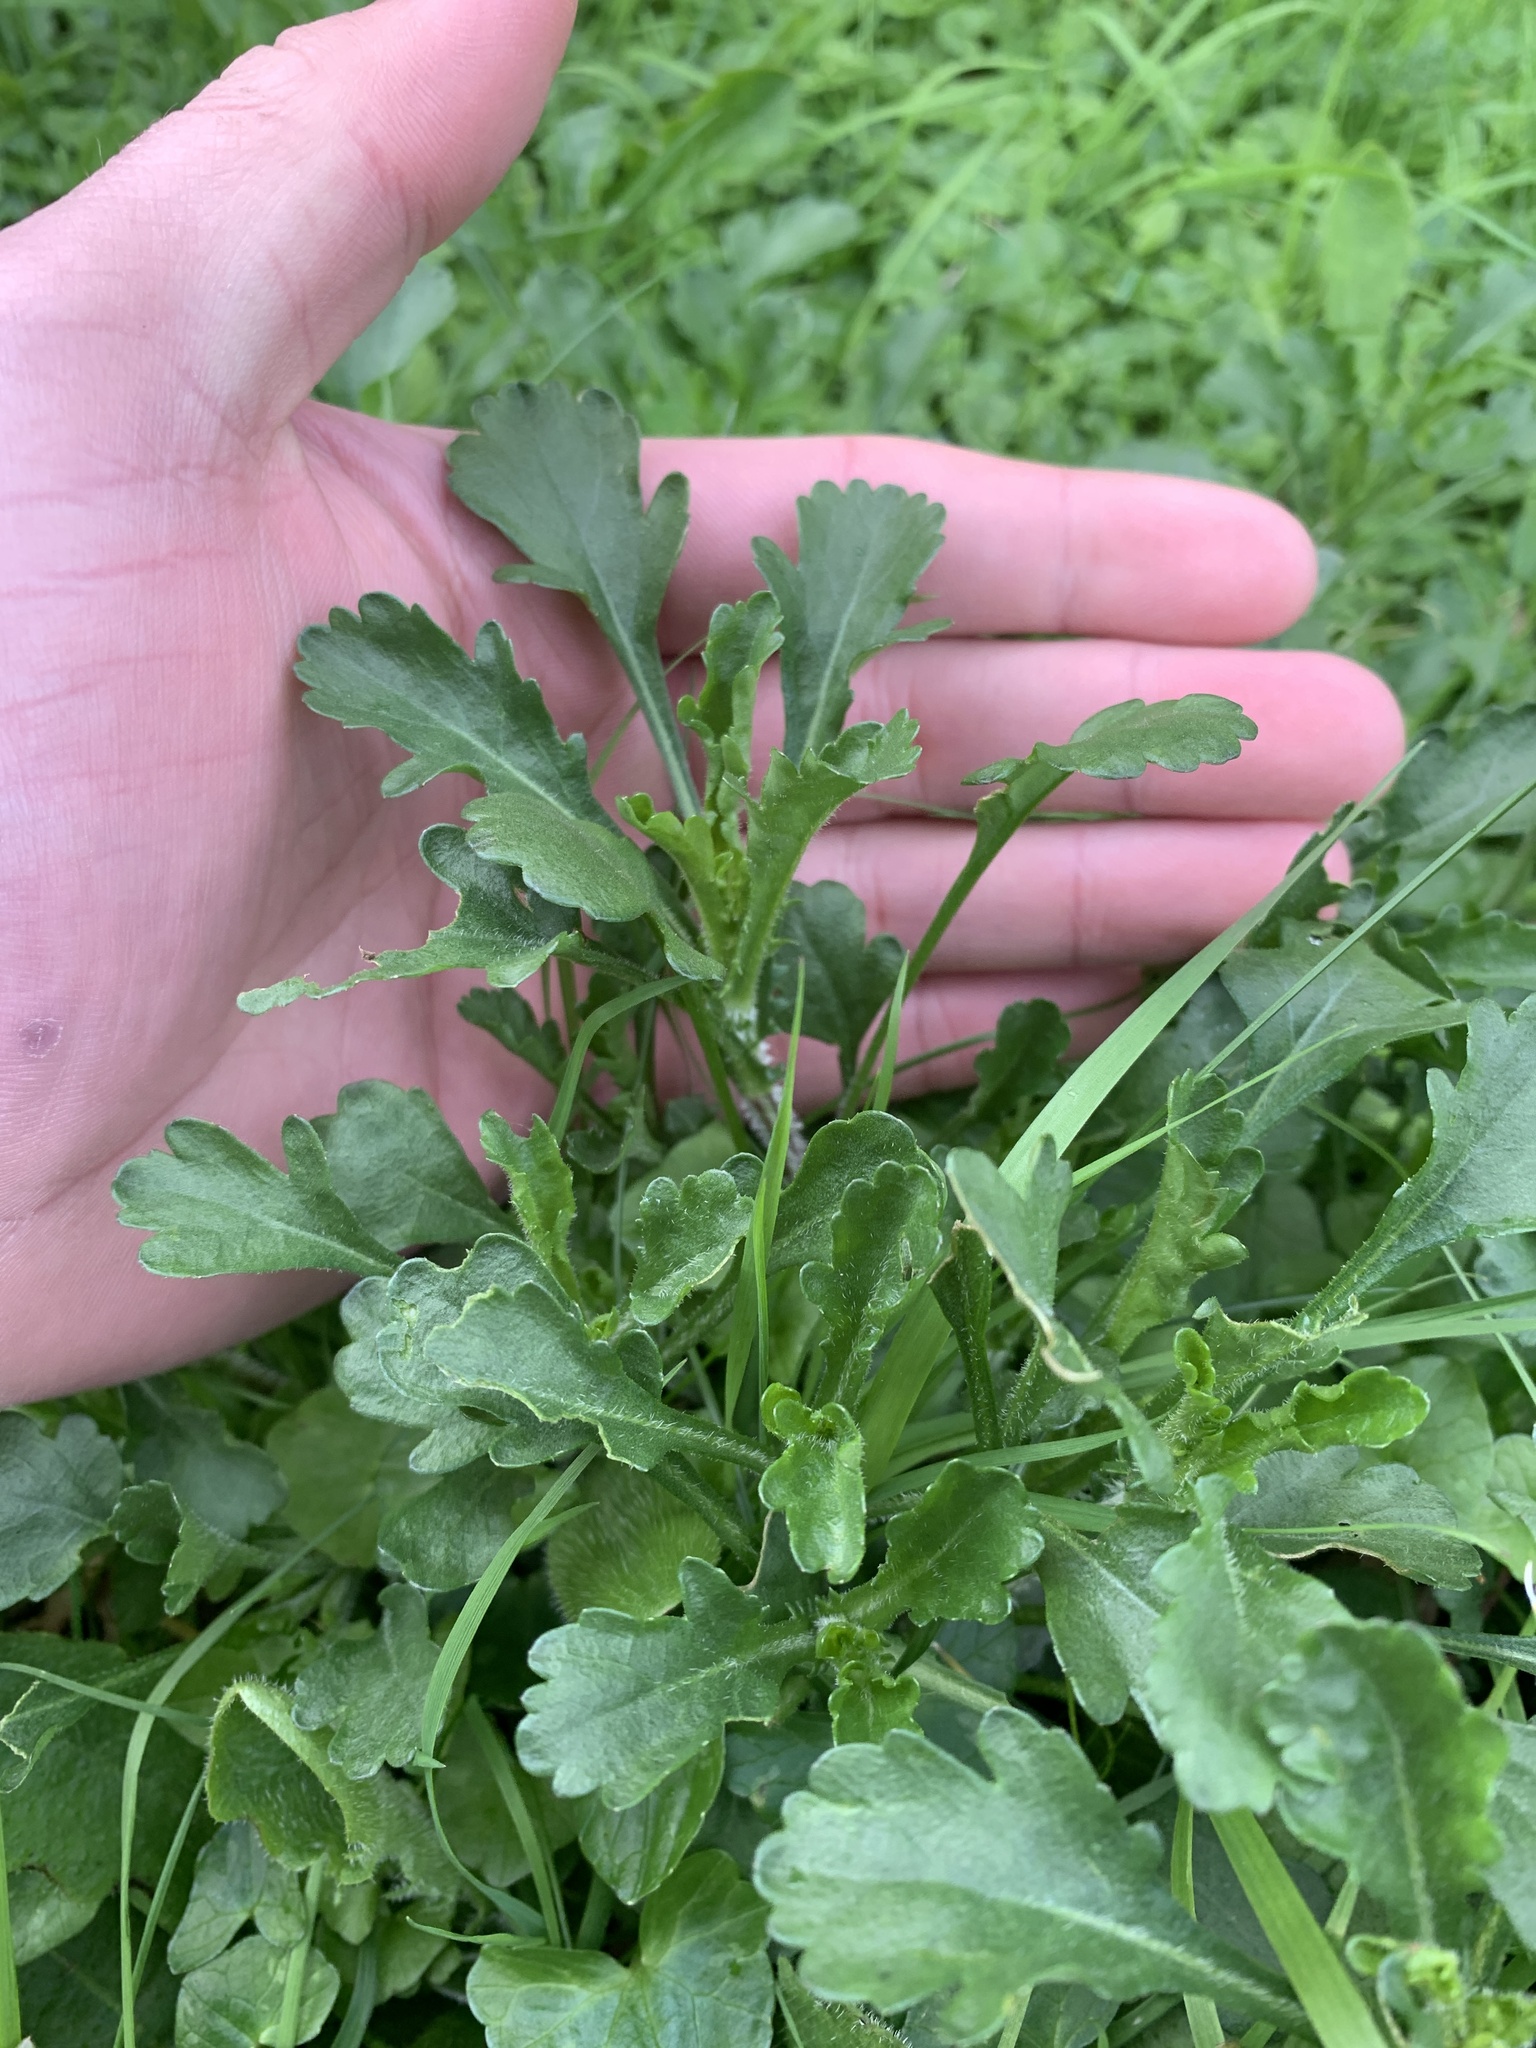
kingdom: Plantae
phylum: Tracheophyta
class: Magnoliopsida
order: Asterales
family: Asteraceae
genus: Leucanthemum
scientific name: Leucanthemum vulgare
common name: Oxeye daisy
